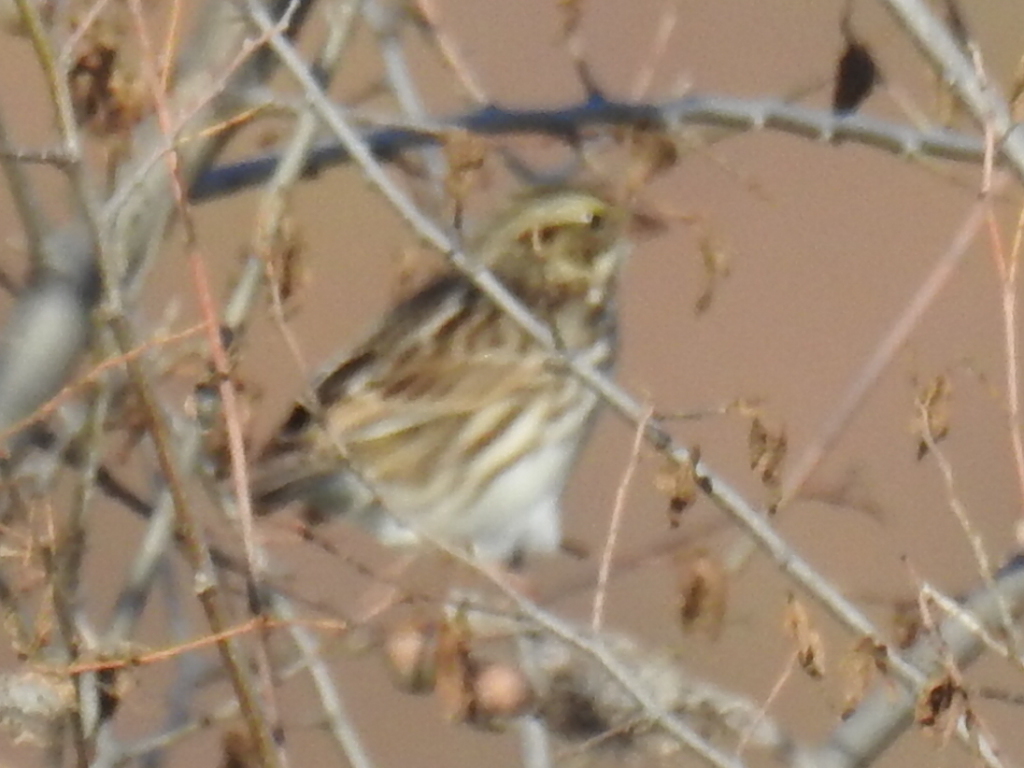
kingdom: Animalia
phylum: Chordata
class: Aves
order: Passeriformes
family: Passerellidae
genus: Passerculus
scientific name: Passerculus sandwichensis
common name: Savannah sparrow
